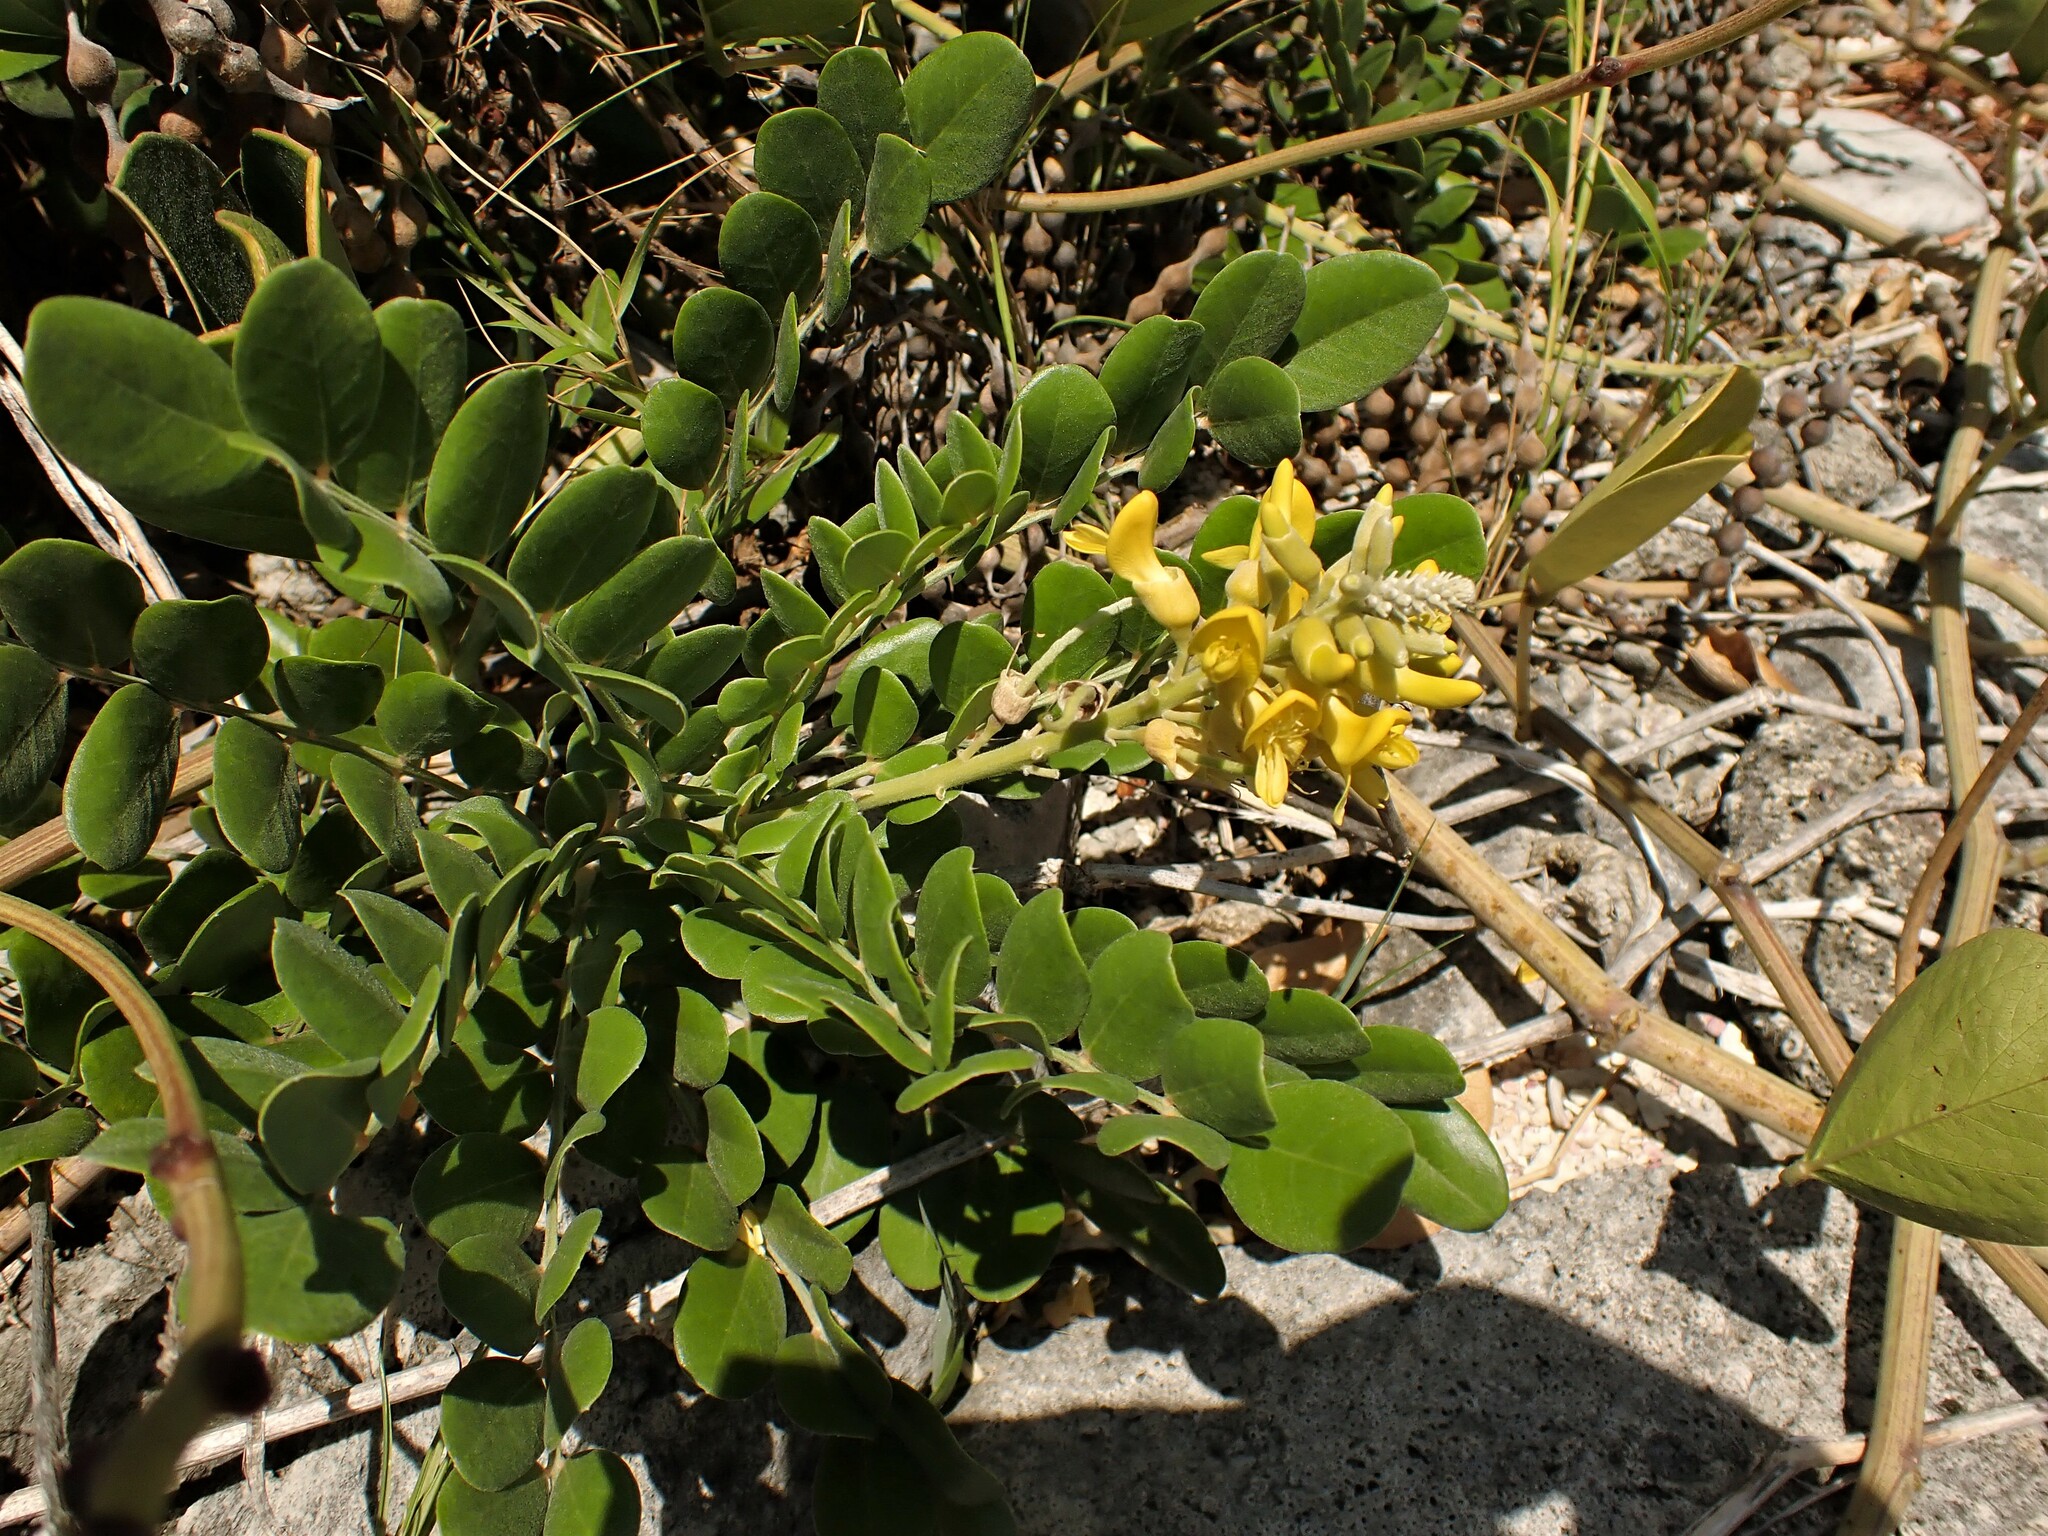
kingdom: Plantae
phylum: Tracheophyta
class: Magnoliopsida
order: Fabales
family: Fabaceae
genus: Sophora
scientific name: Sophora tomentosa
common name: Yellow necklacepod
